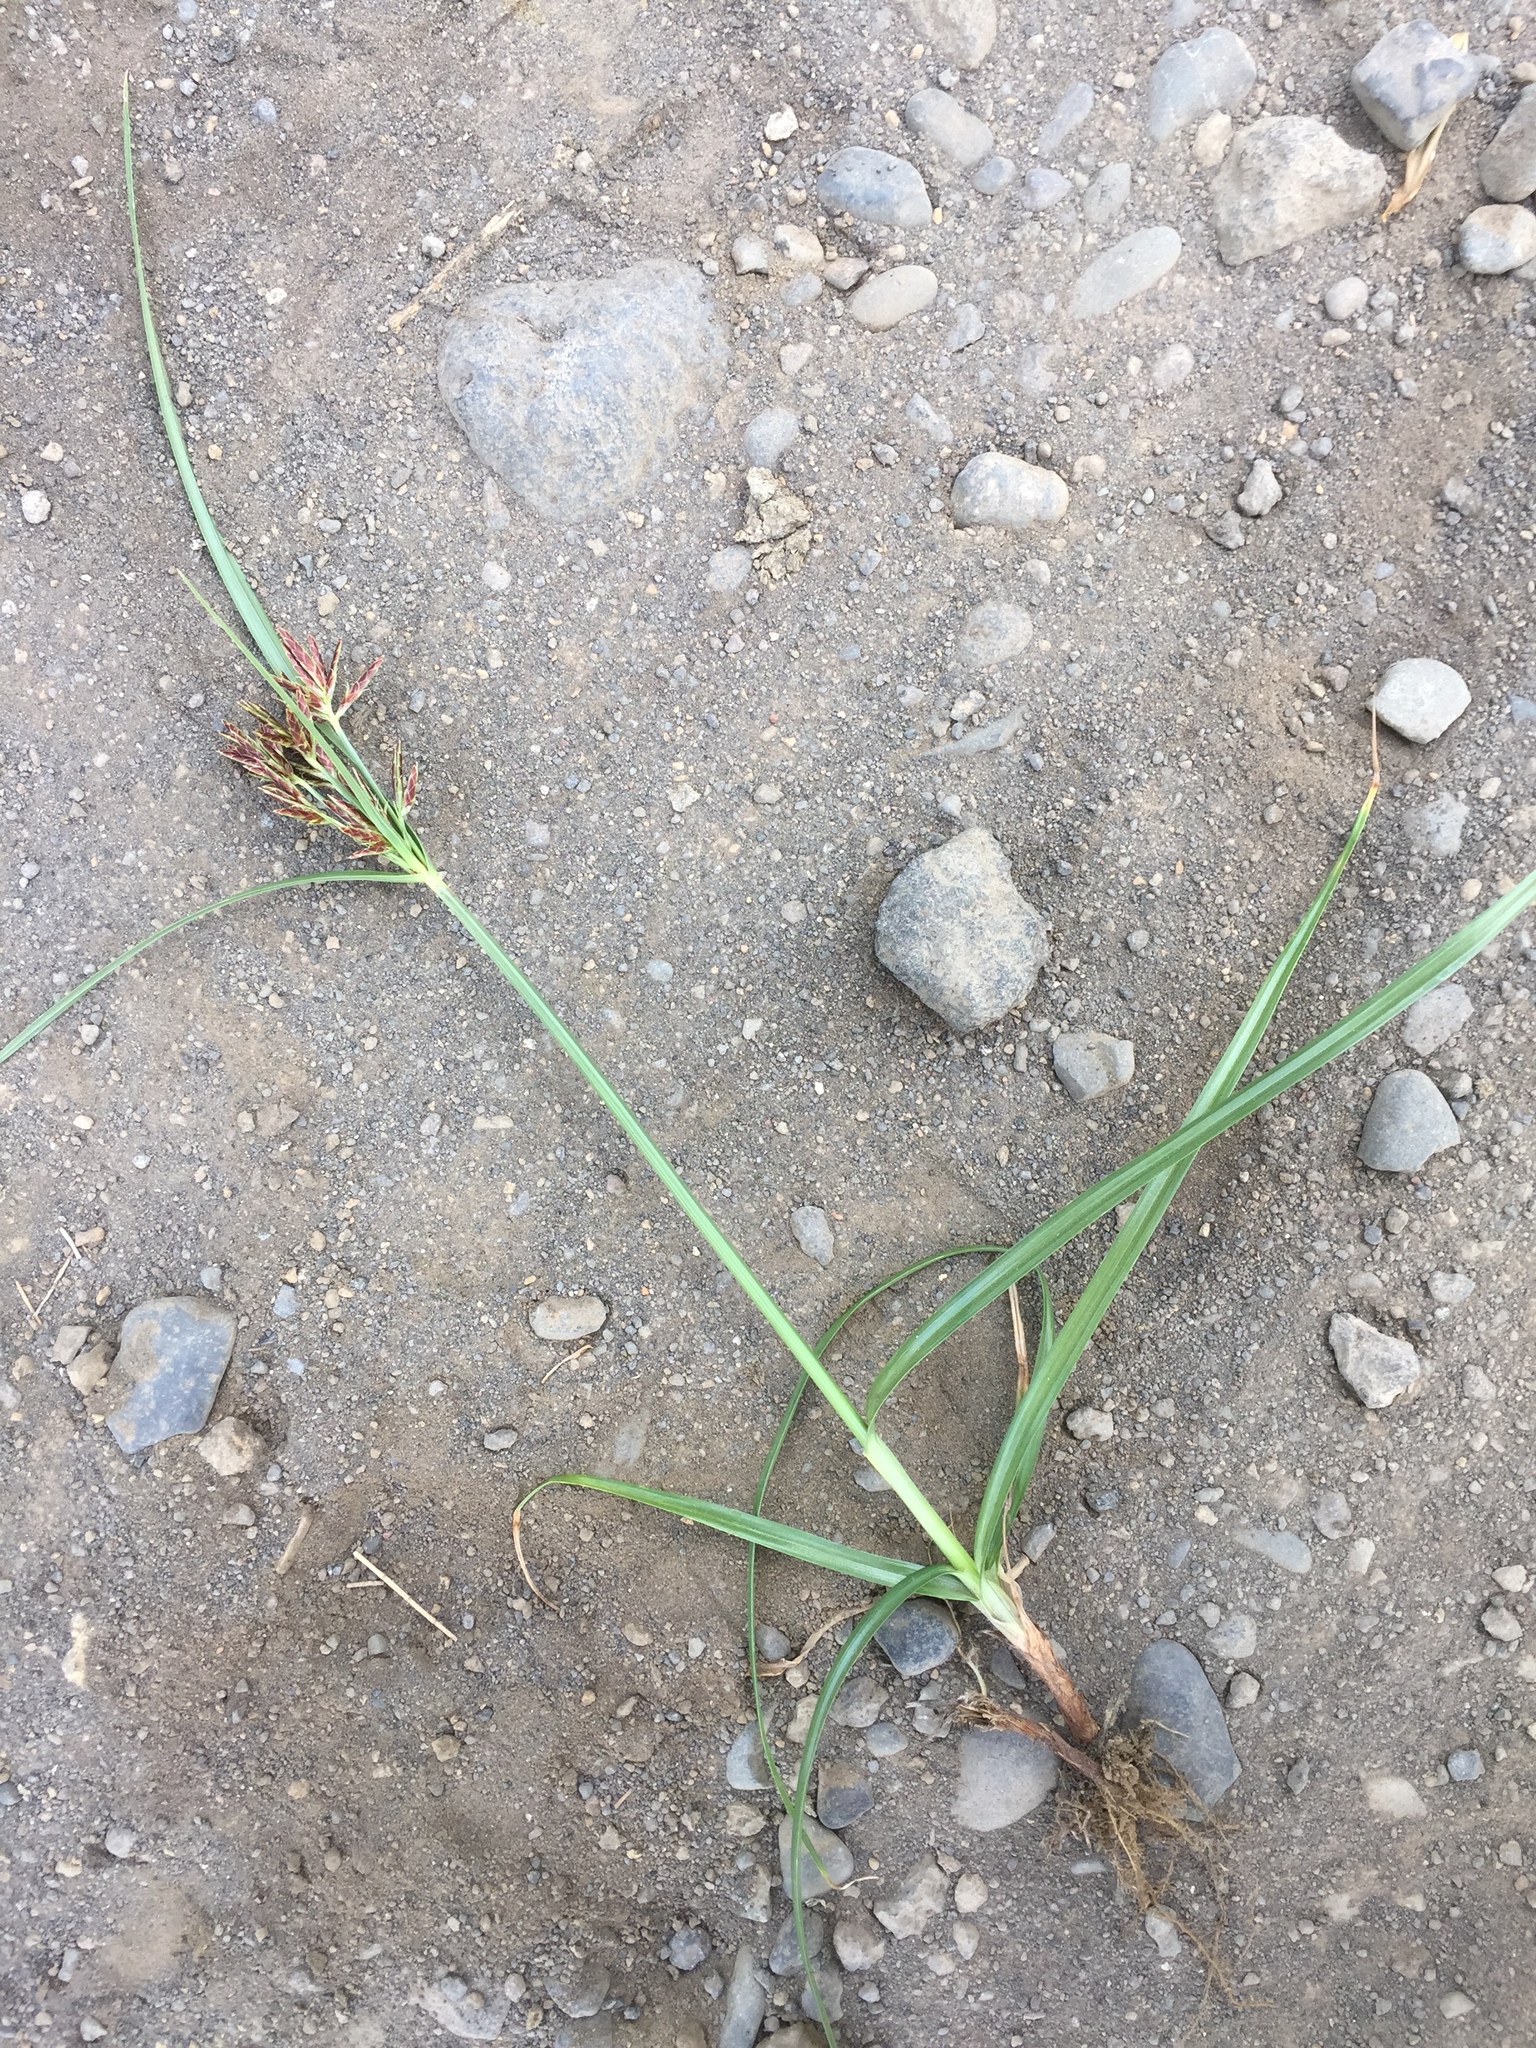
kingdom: Plantae
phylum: Tracheophyta
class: Liliopsida
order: Poales
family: Cyperaceae
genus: Cyperus
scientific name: Cyperus rotundus
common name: Nutgrass
